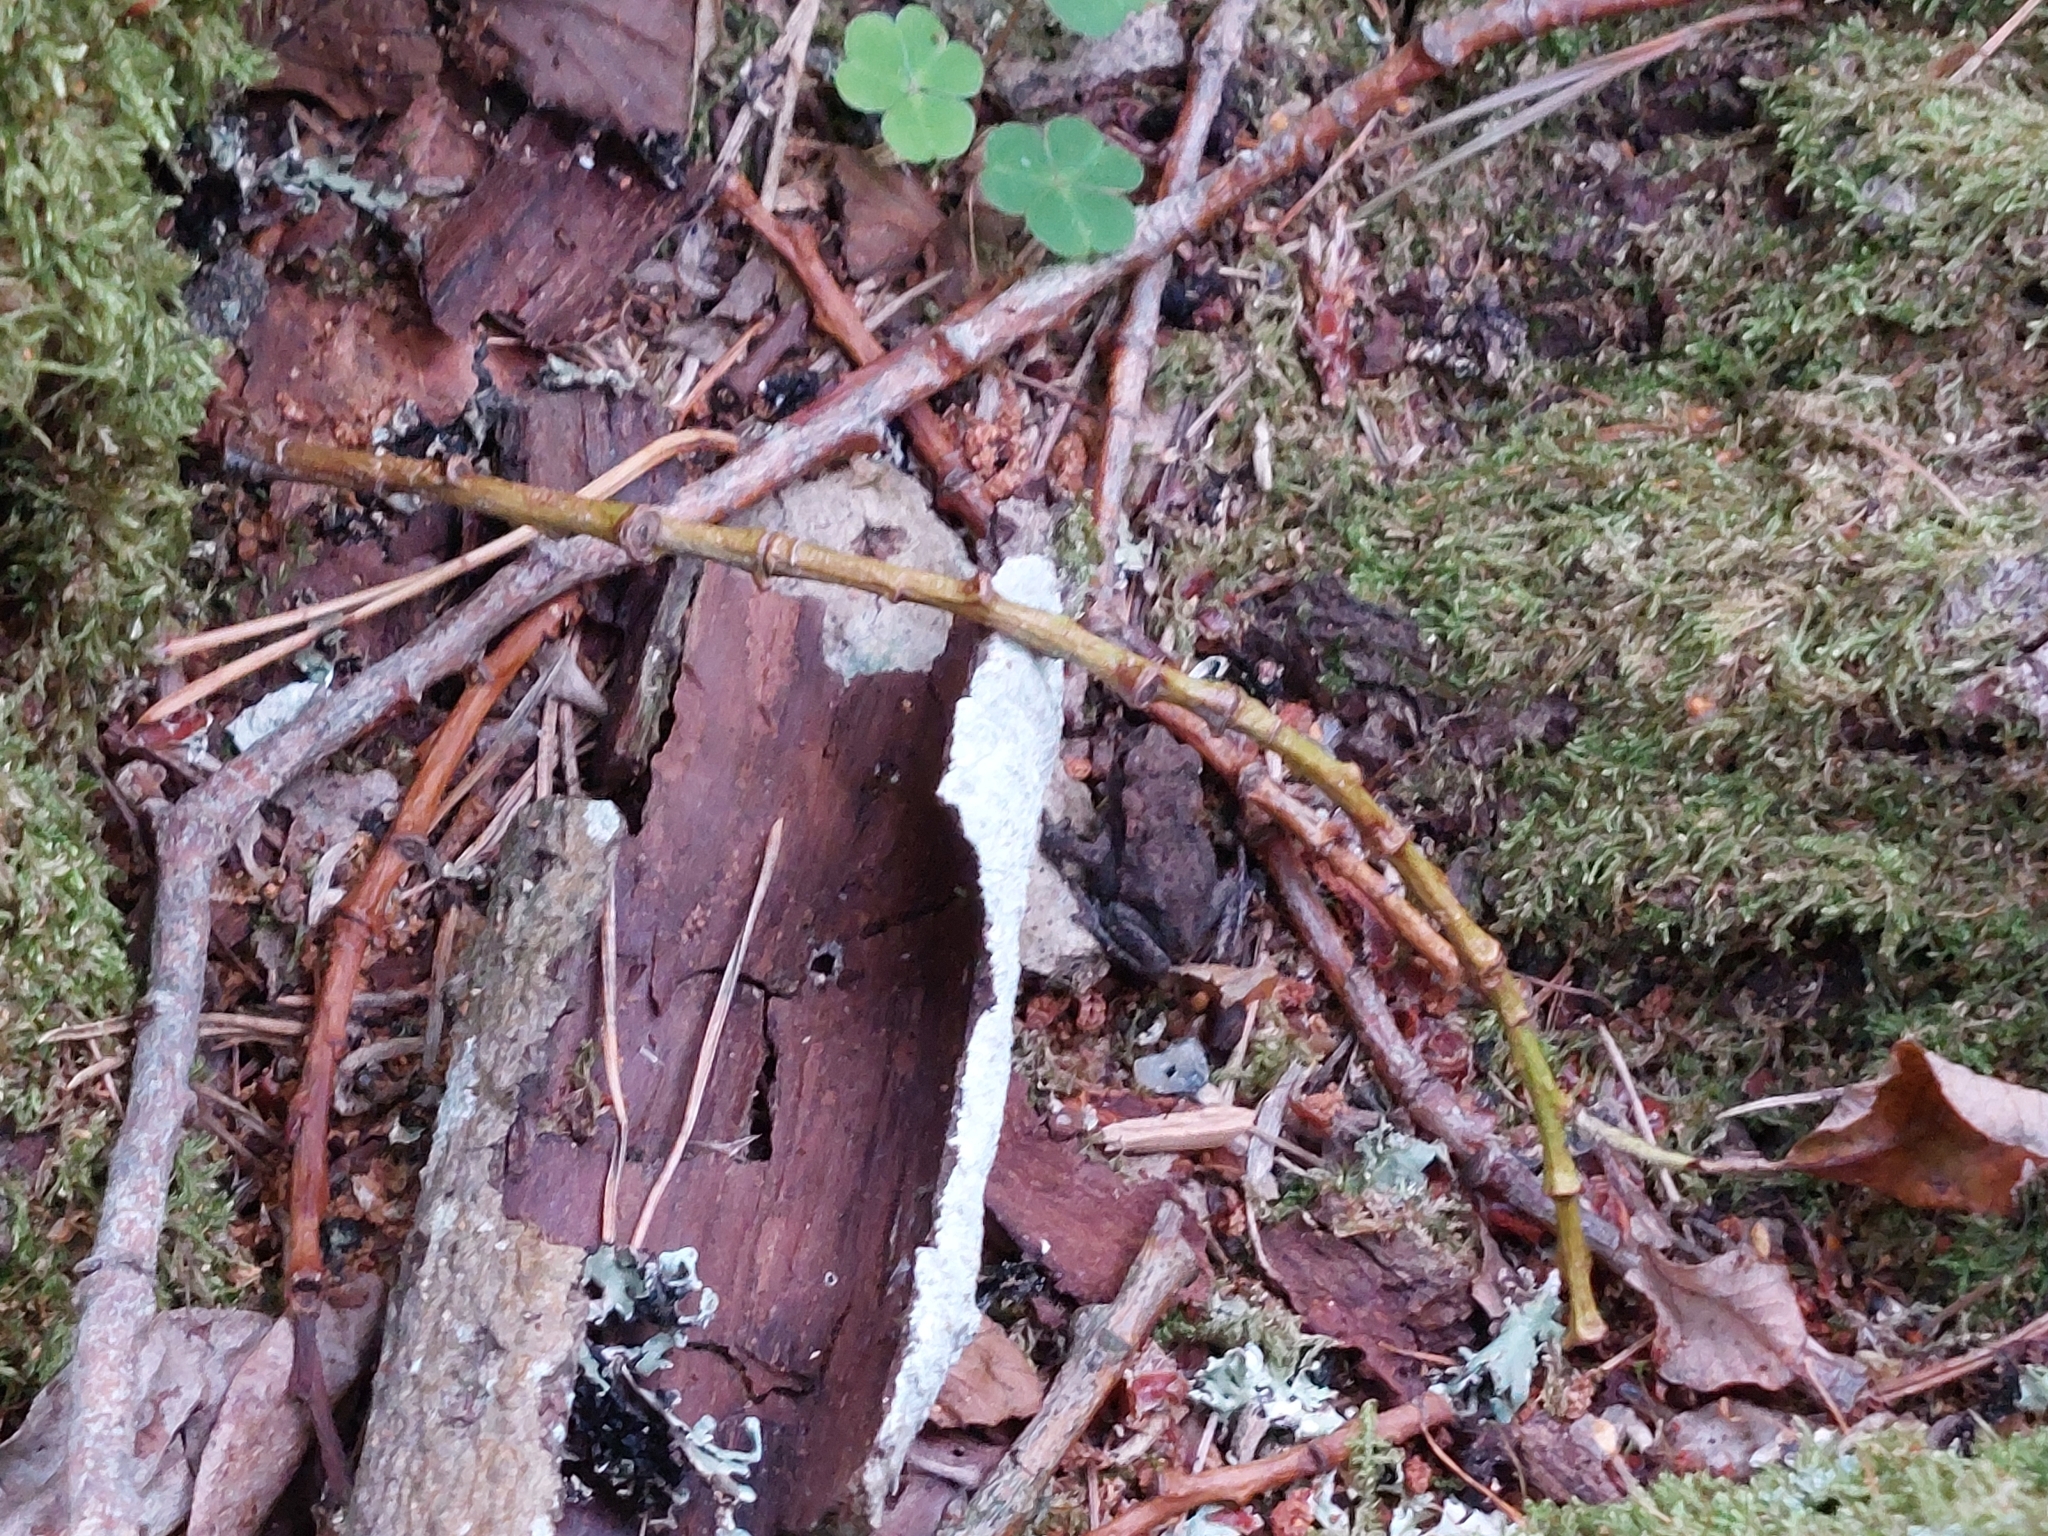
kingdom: Animalia
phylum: Chordata
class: Amphibia
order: Anura
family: Bufonidae
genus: Bufo
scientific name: Bufo bufo
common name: Common toad
